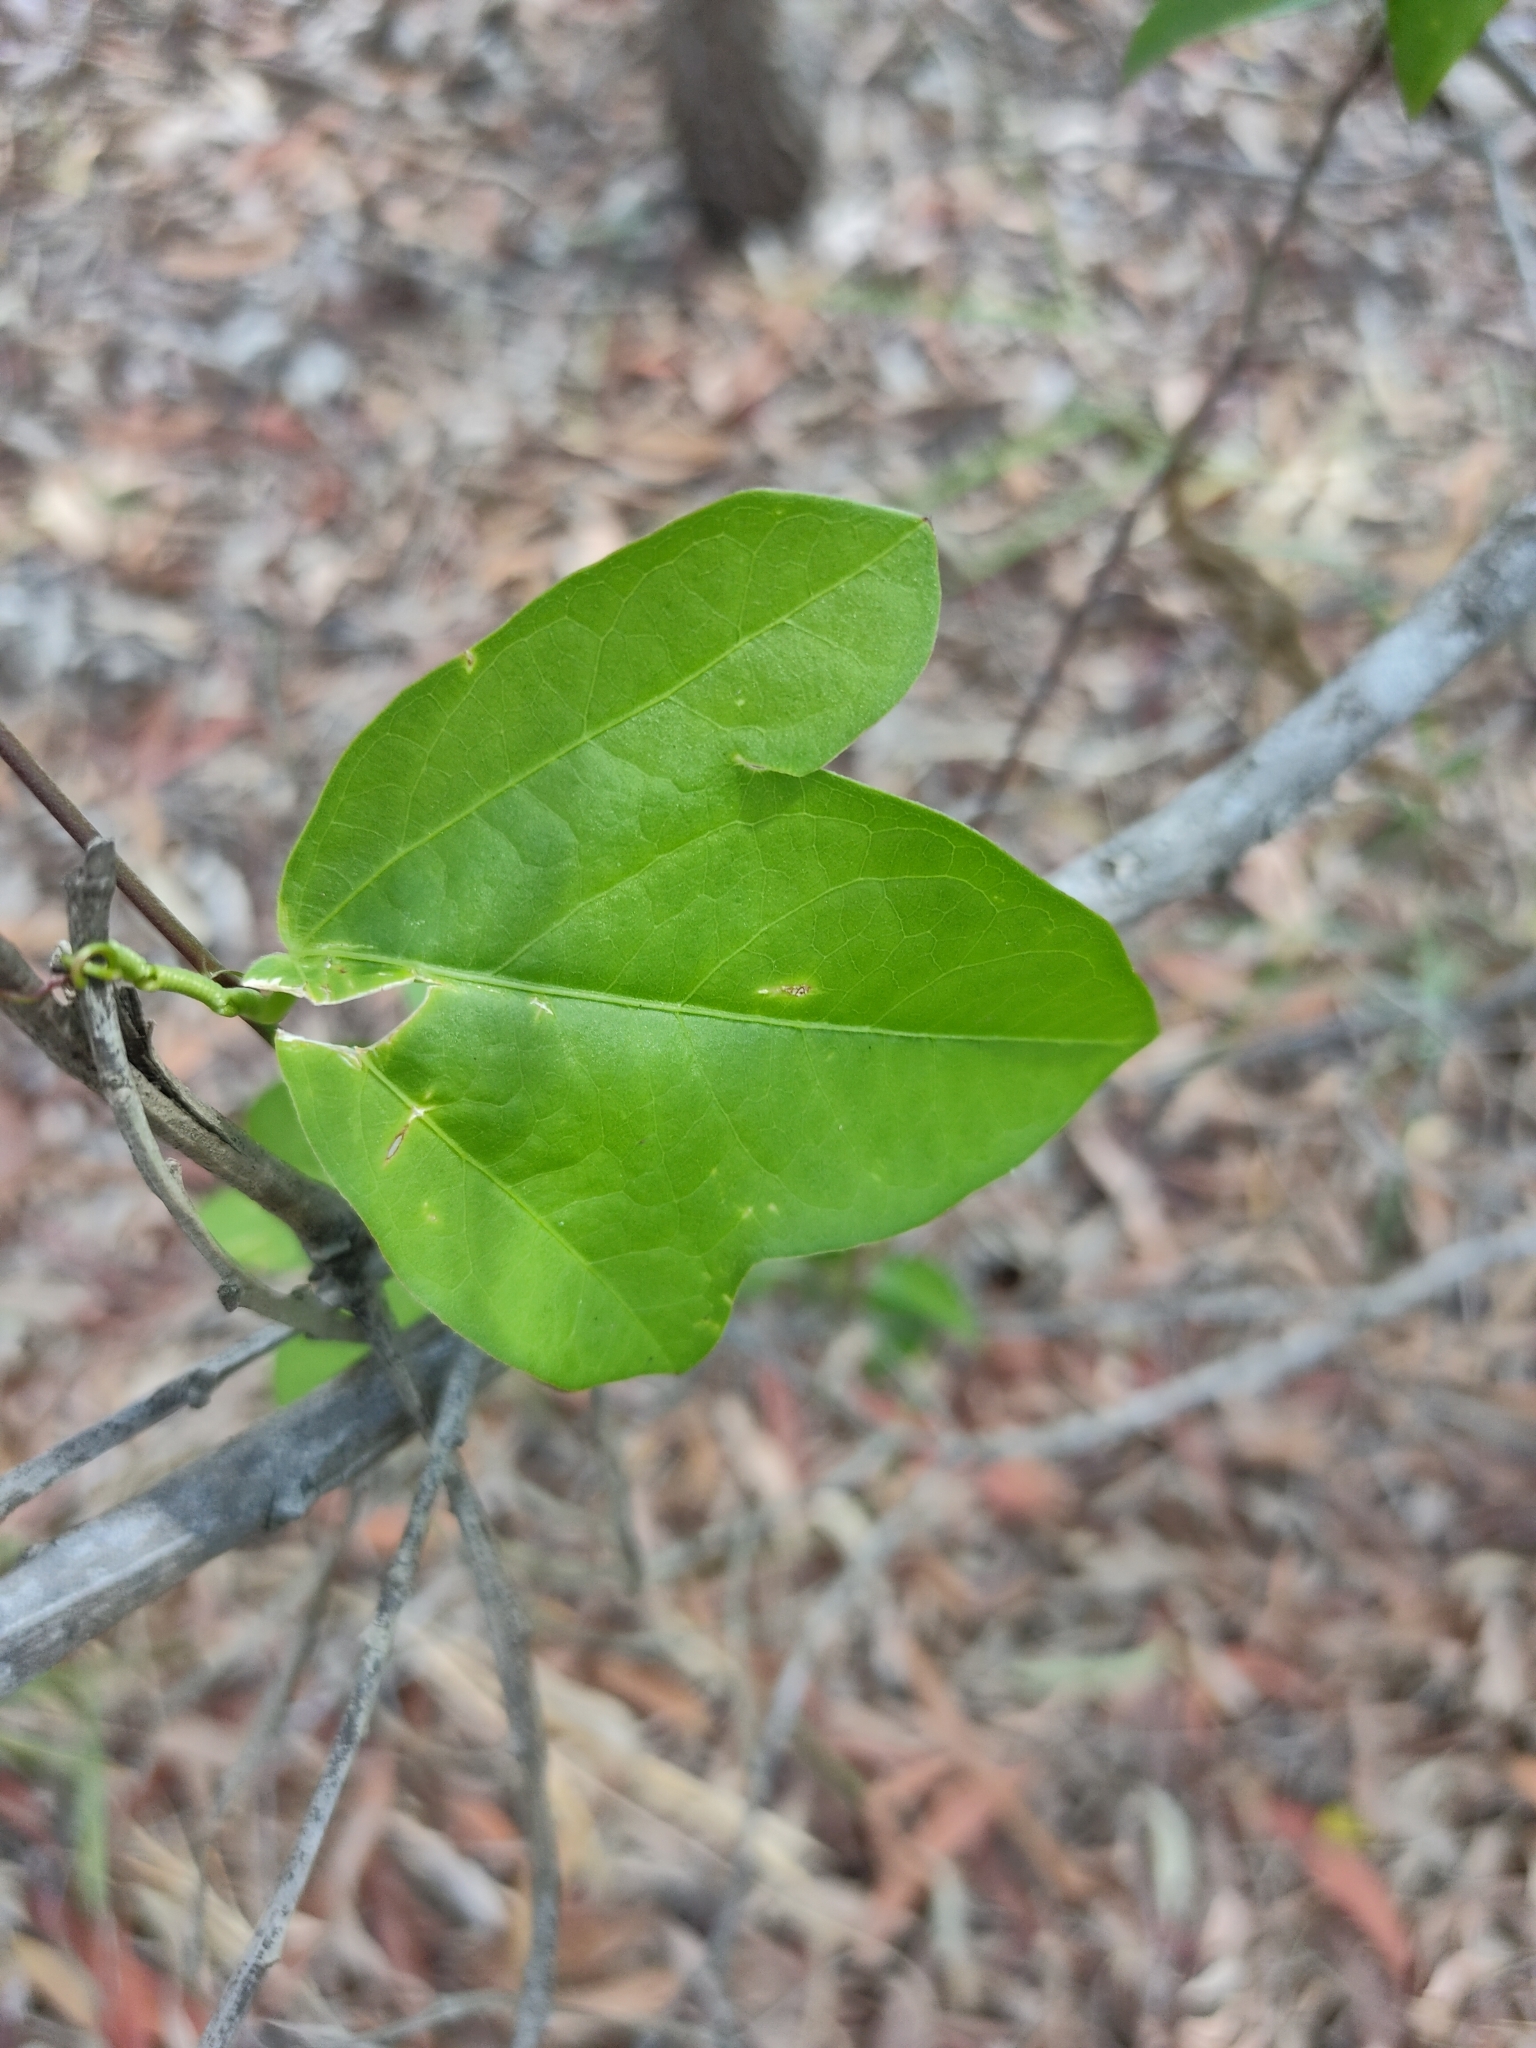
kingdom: Plantae
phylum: Tracheophyta
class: Magnoliopsida
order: Malpighiales
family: Passifloraceae
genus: Passiflora
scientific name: Passiflora pallida
